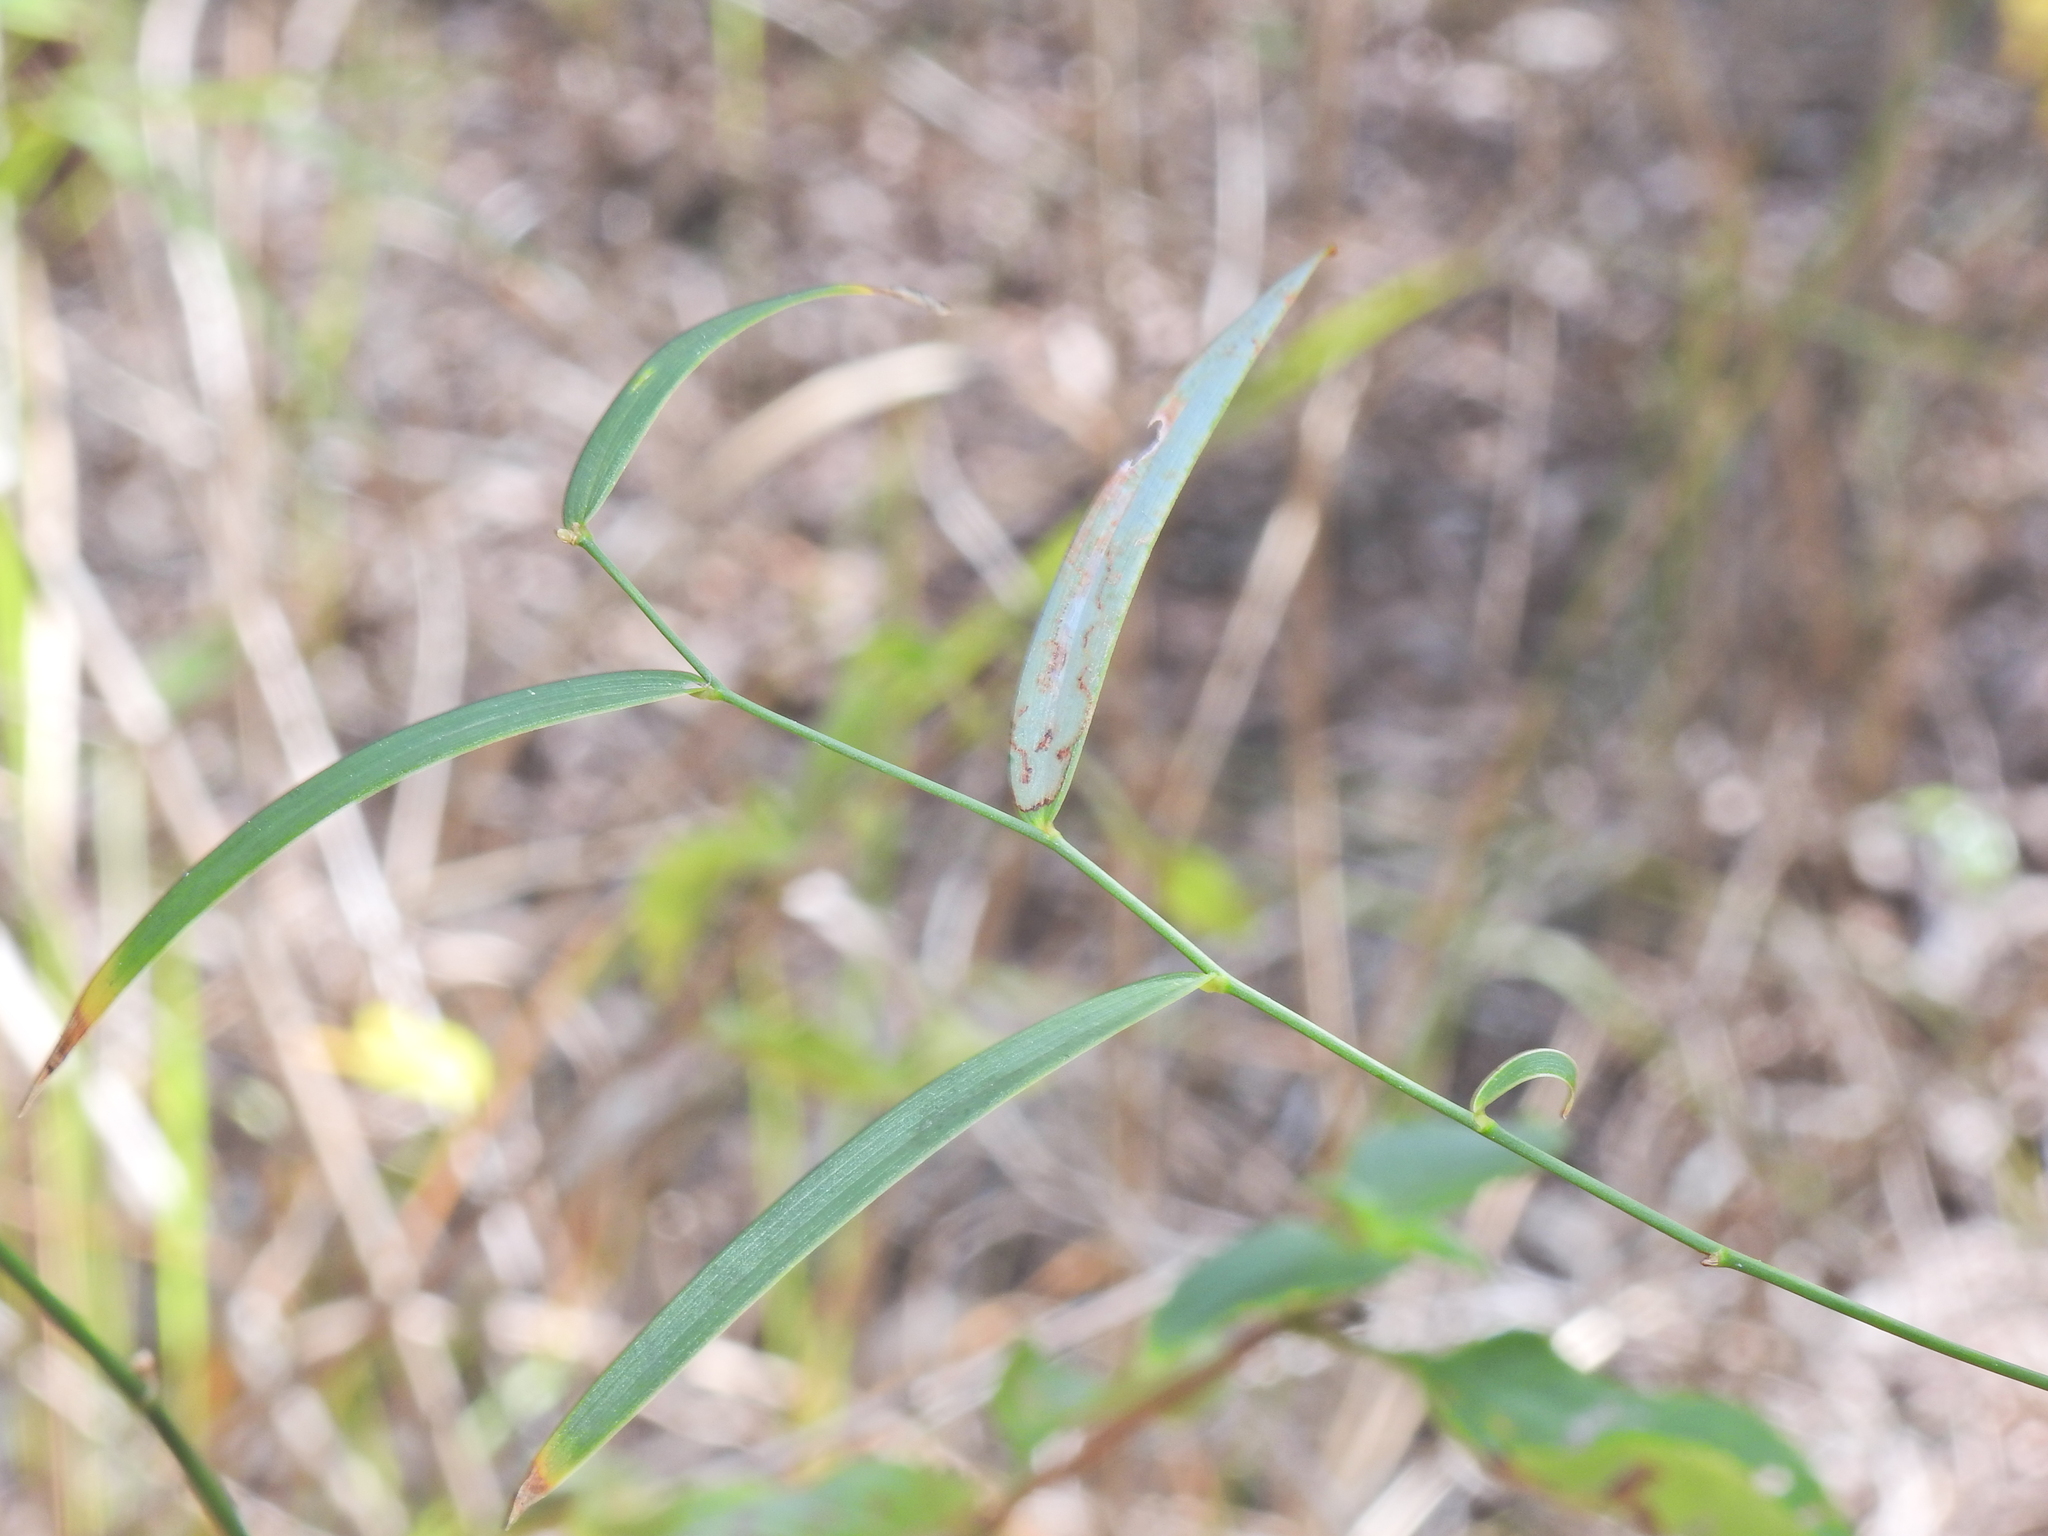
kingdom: Plantae
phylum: Tracheophyta
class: Liliopsida
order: Asparagales
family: Asparagaceae
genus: Eustrephus
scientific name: Eustrephus latifolius
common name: Orangevine
